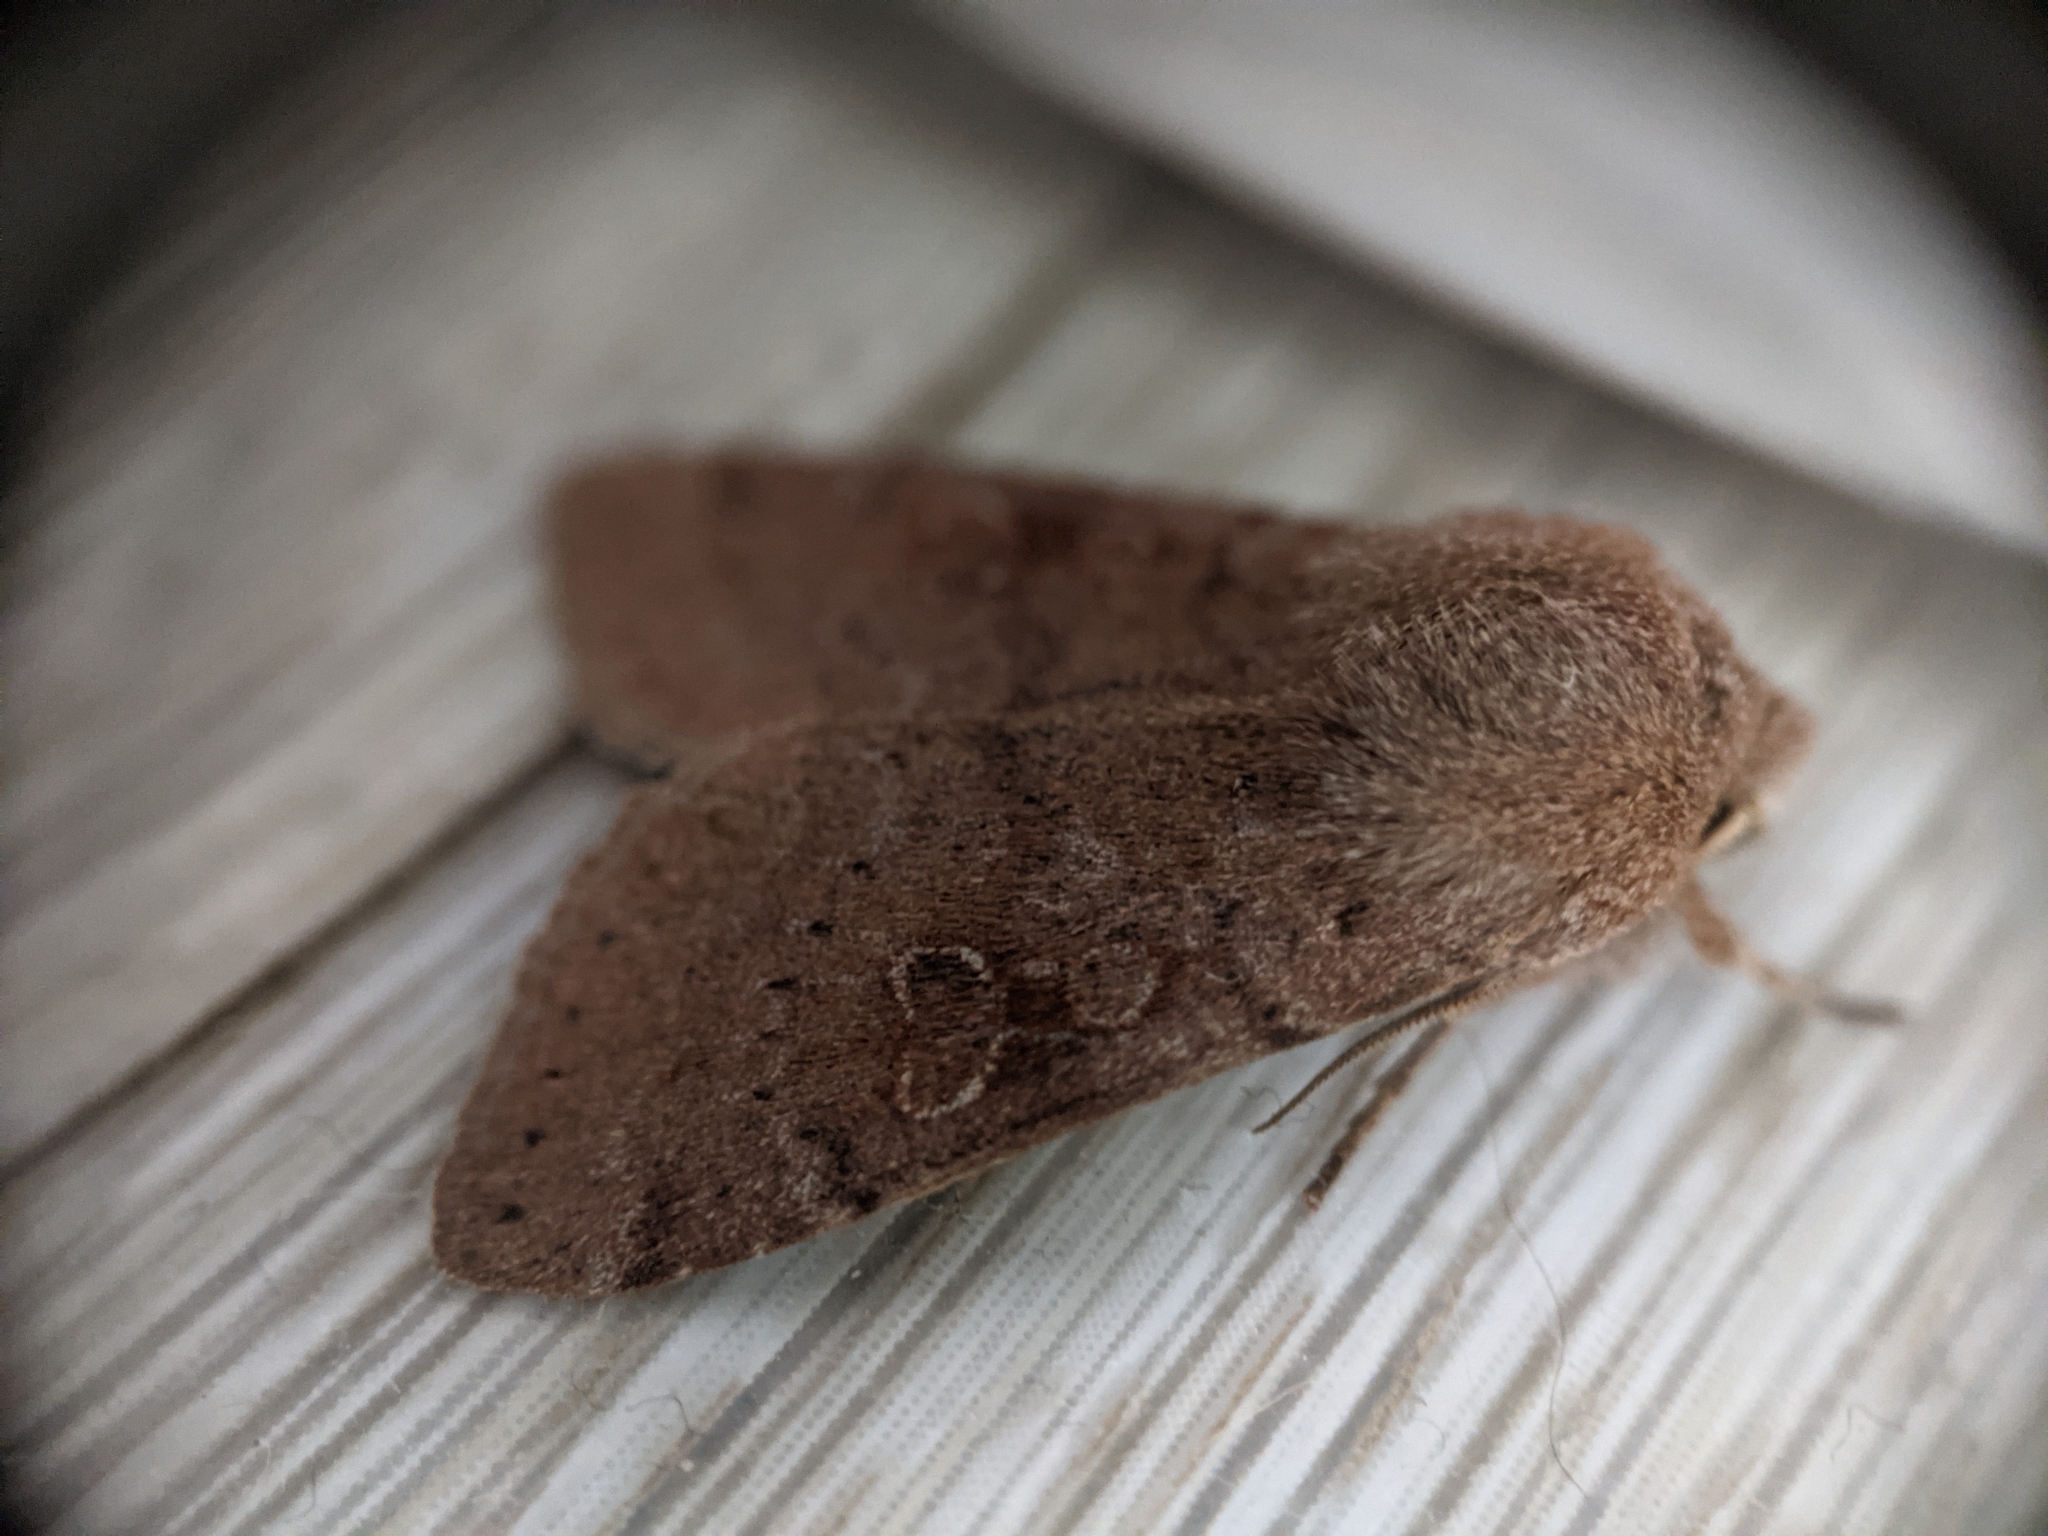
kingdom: Animalia
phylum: Arthropoda
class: Insecta
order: Lepidoptera
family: Noctuidae
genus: Orthosia
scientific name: Orthosia hibisci
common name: Green fruitworm
